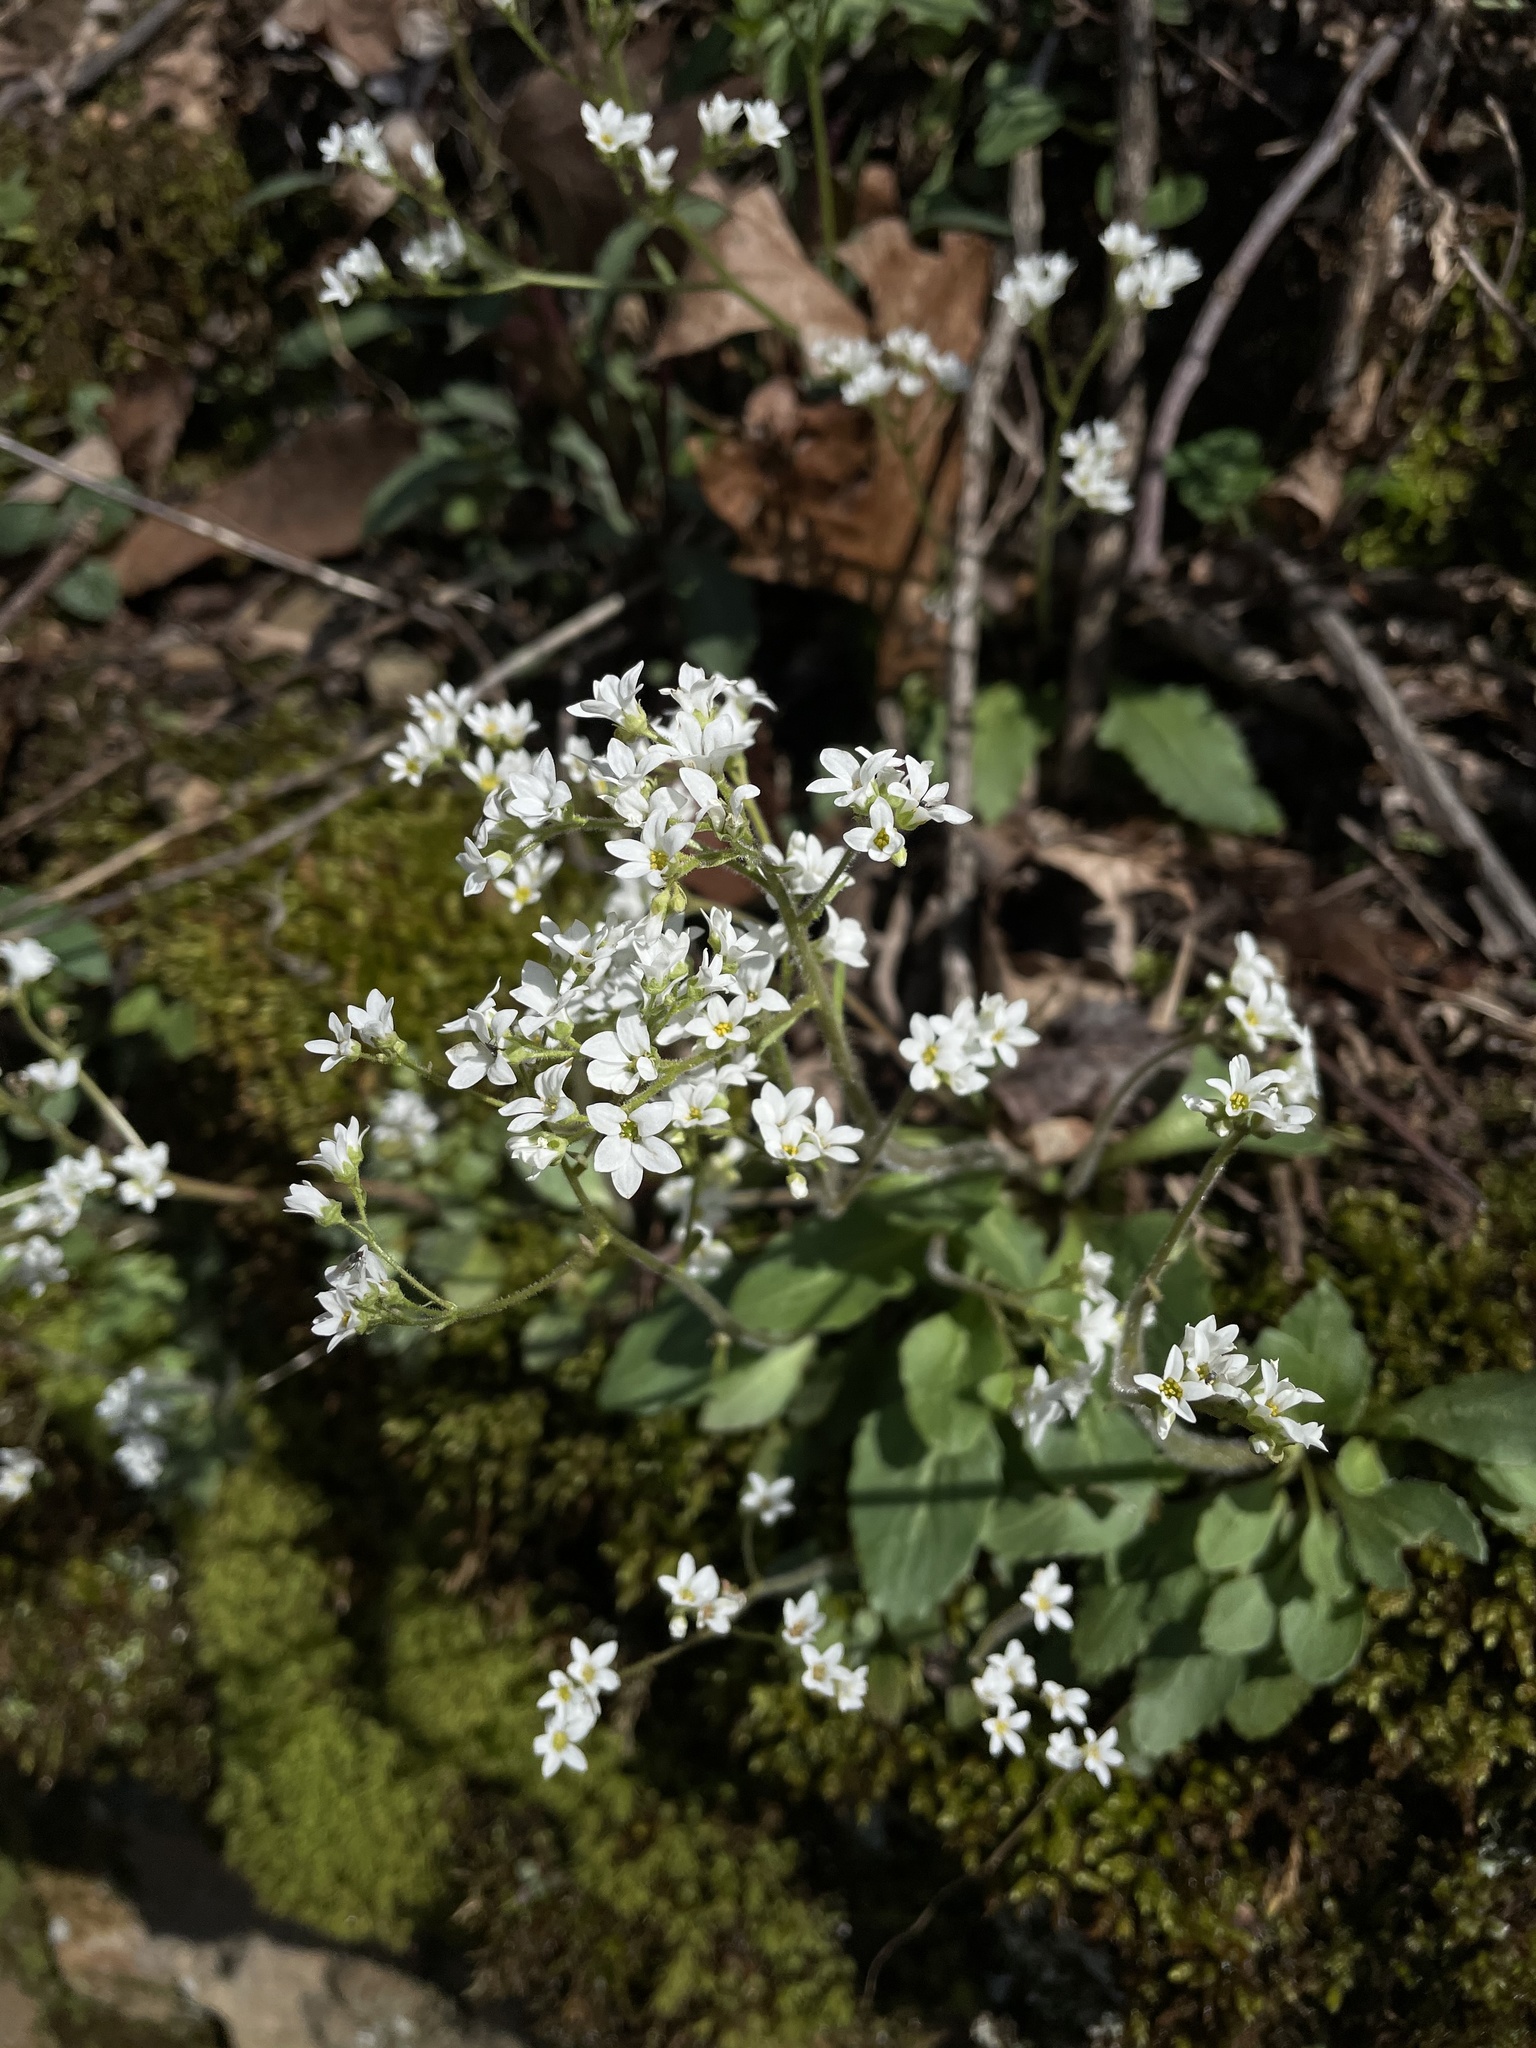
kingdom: Plantae
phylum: Tracheophyta
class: Magnoliopsida
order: Saxifragales
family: Saxifragaceae
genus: Micranthes
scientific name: Micranthes virginiensis
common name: Early saxifrage
